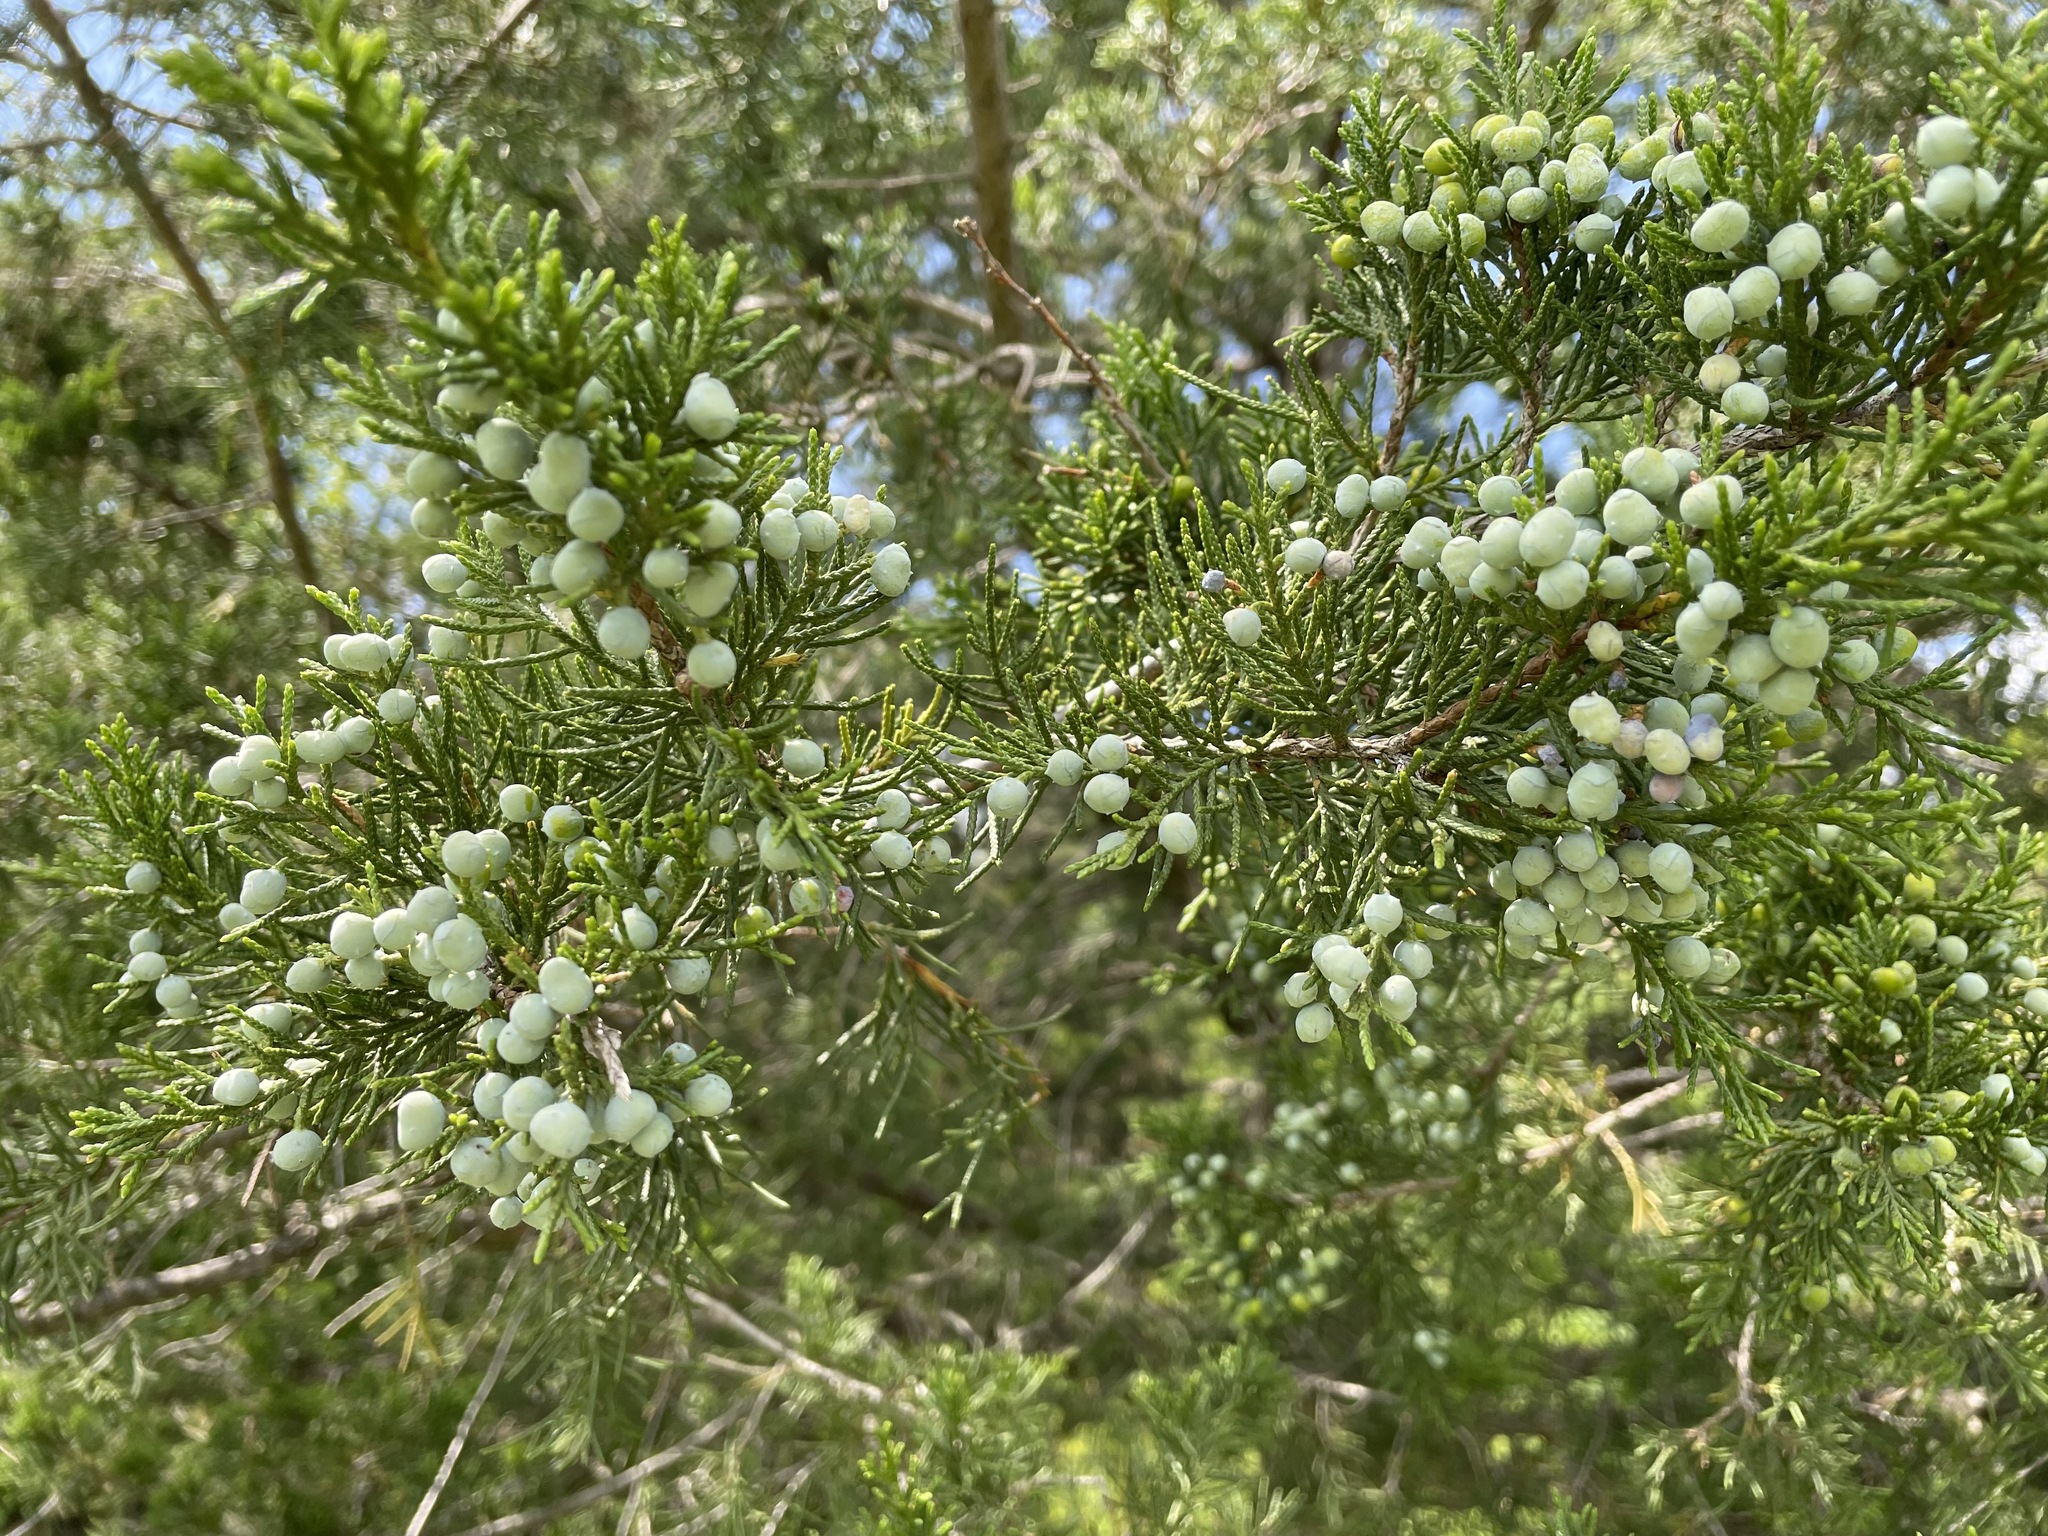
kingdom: Plantae
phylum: Tracheophyta
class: Pinopsida
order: Pinales
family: Cupressaceae
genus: Juniperus
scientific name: Juniperus virginiana
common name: Red juniper
